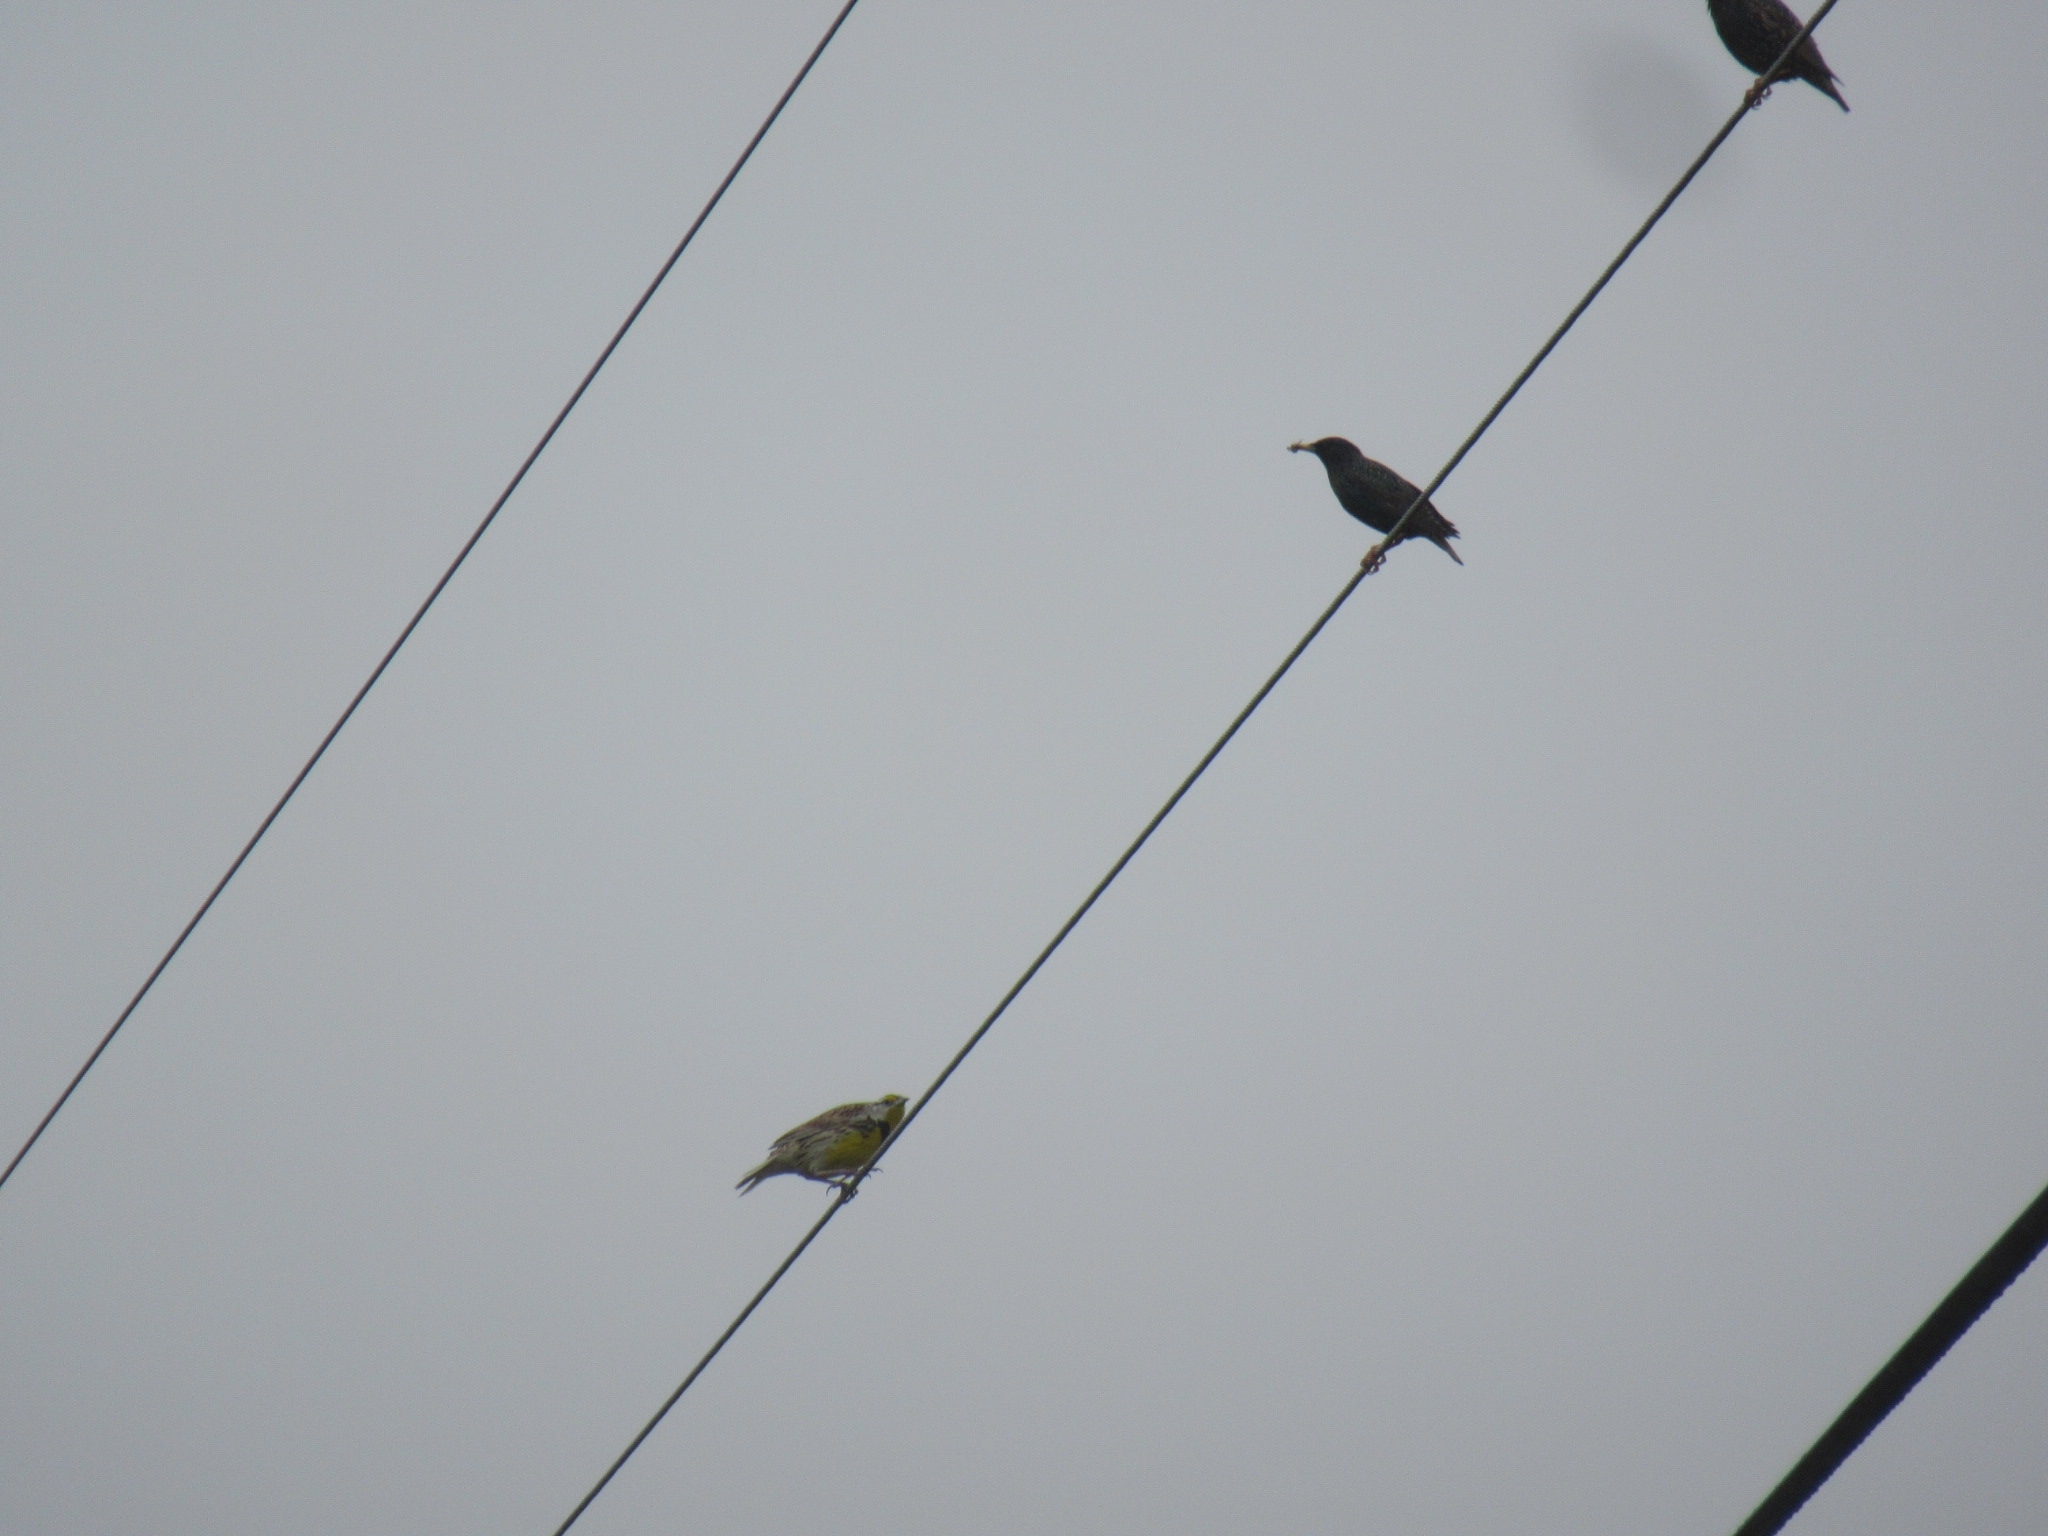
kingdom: Animalia
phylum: Chordata
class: Aves
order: Passeriformes
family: Icteridae
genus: Sturnella
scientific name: Sturnella magna
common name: Eastern meadowlark
